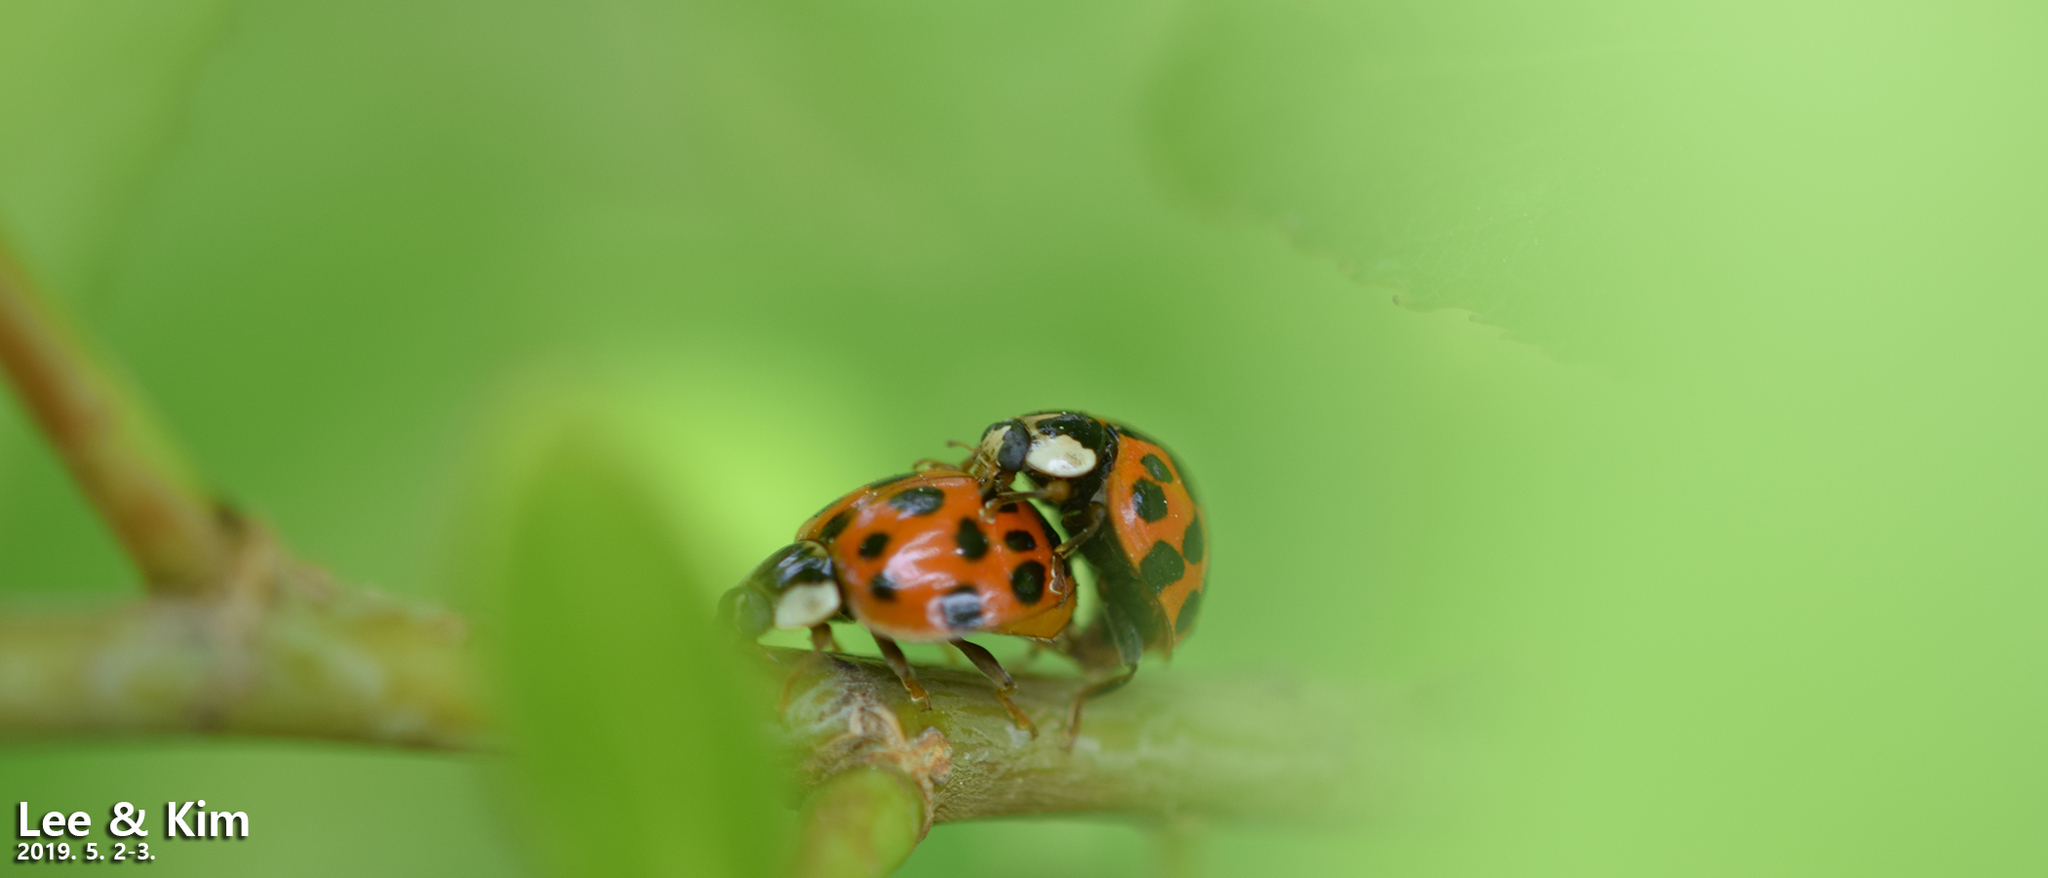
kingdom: Animalia
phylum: Arthropoda
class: Insecta
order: Coleoptera
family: Coccinellidae
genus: Harmonia
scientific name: Harmonia axyridis
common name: Harlequin ladybird
